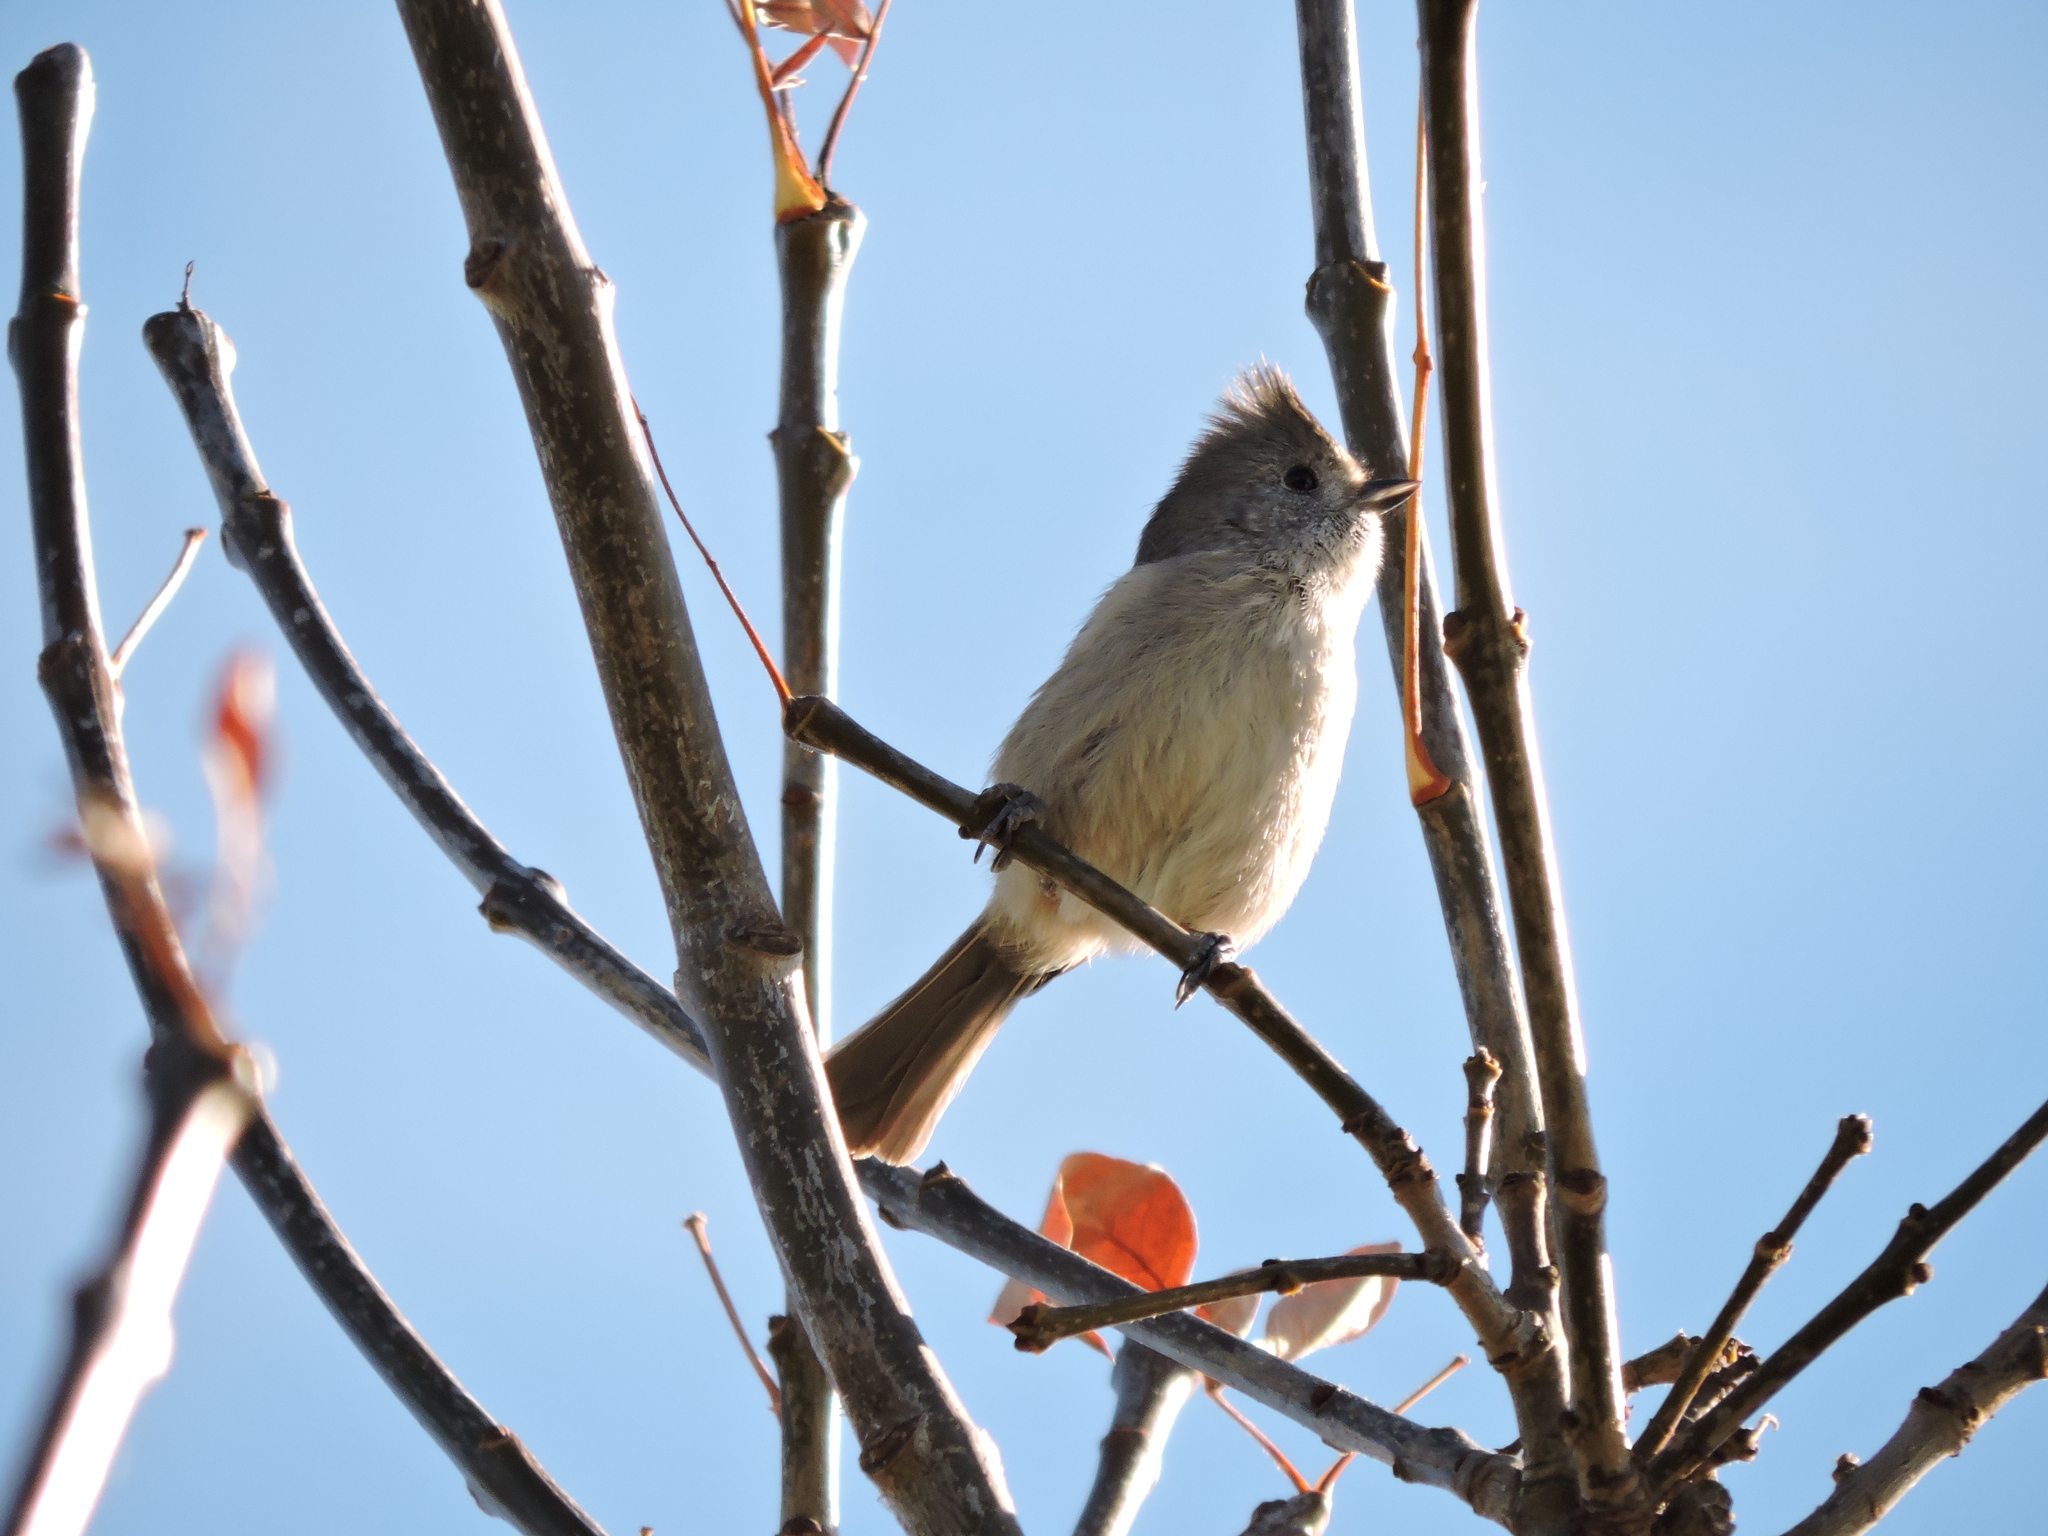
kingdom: Animalia
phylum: Chordata
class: Aves
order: Passeriformes
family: Paridae
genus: Baeolophus
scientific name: Baeolophus inornatus
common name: Oak titmouse
